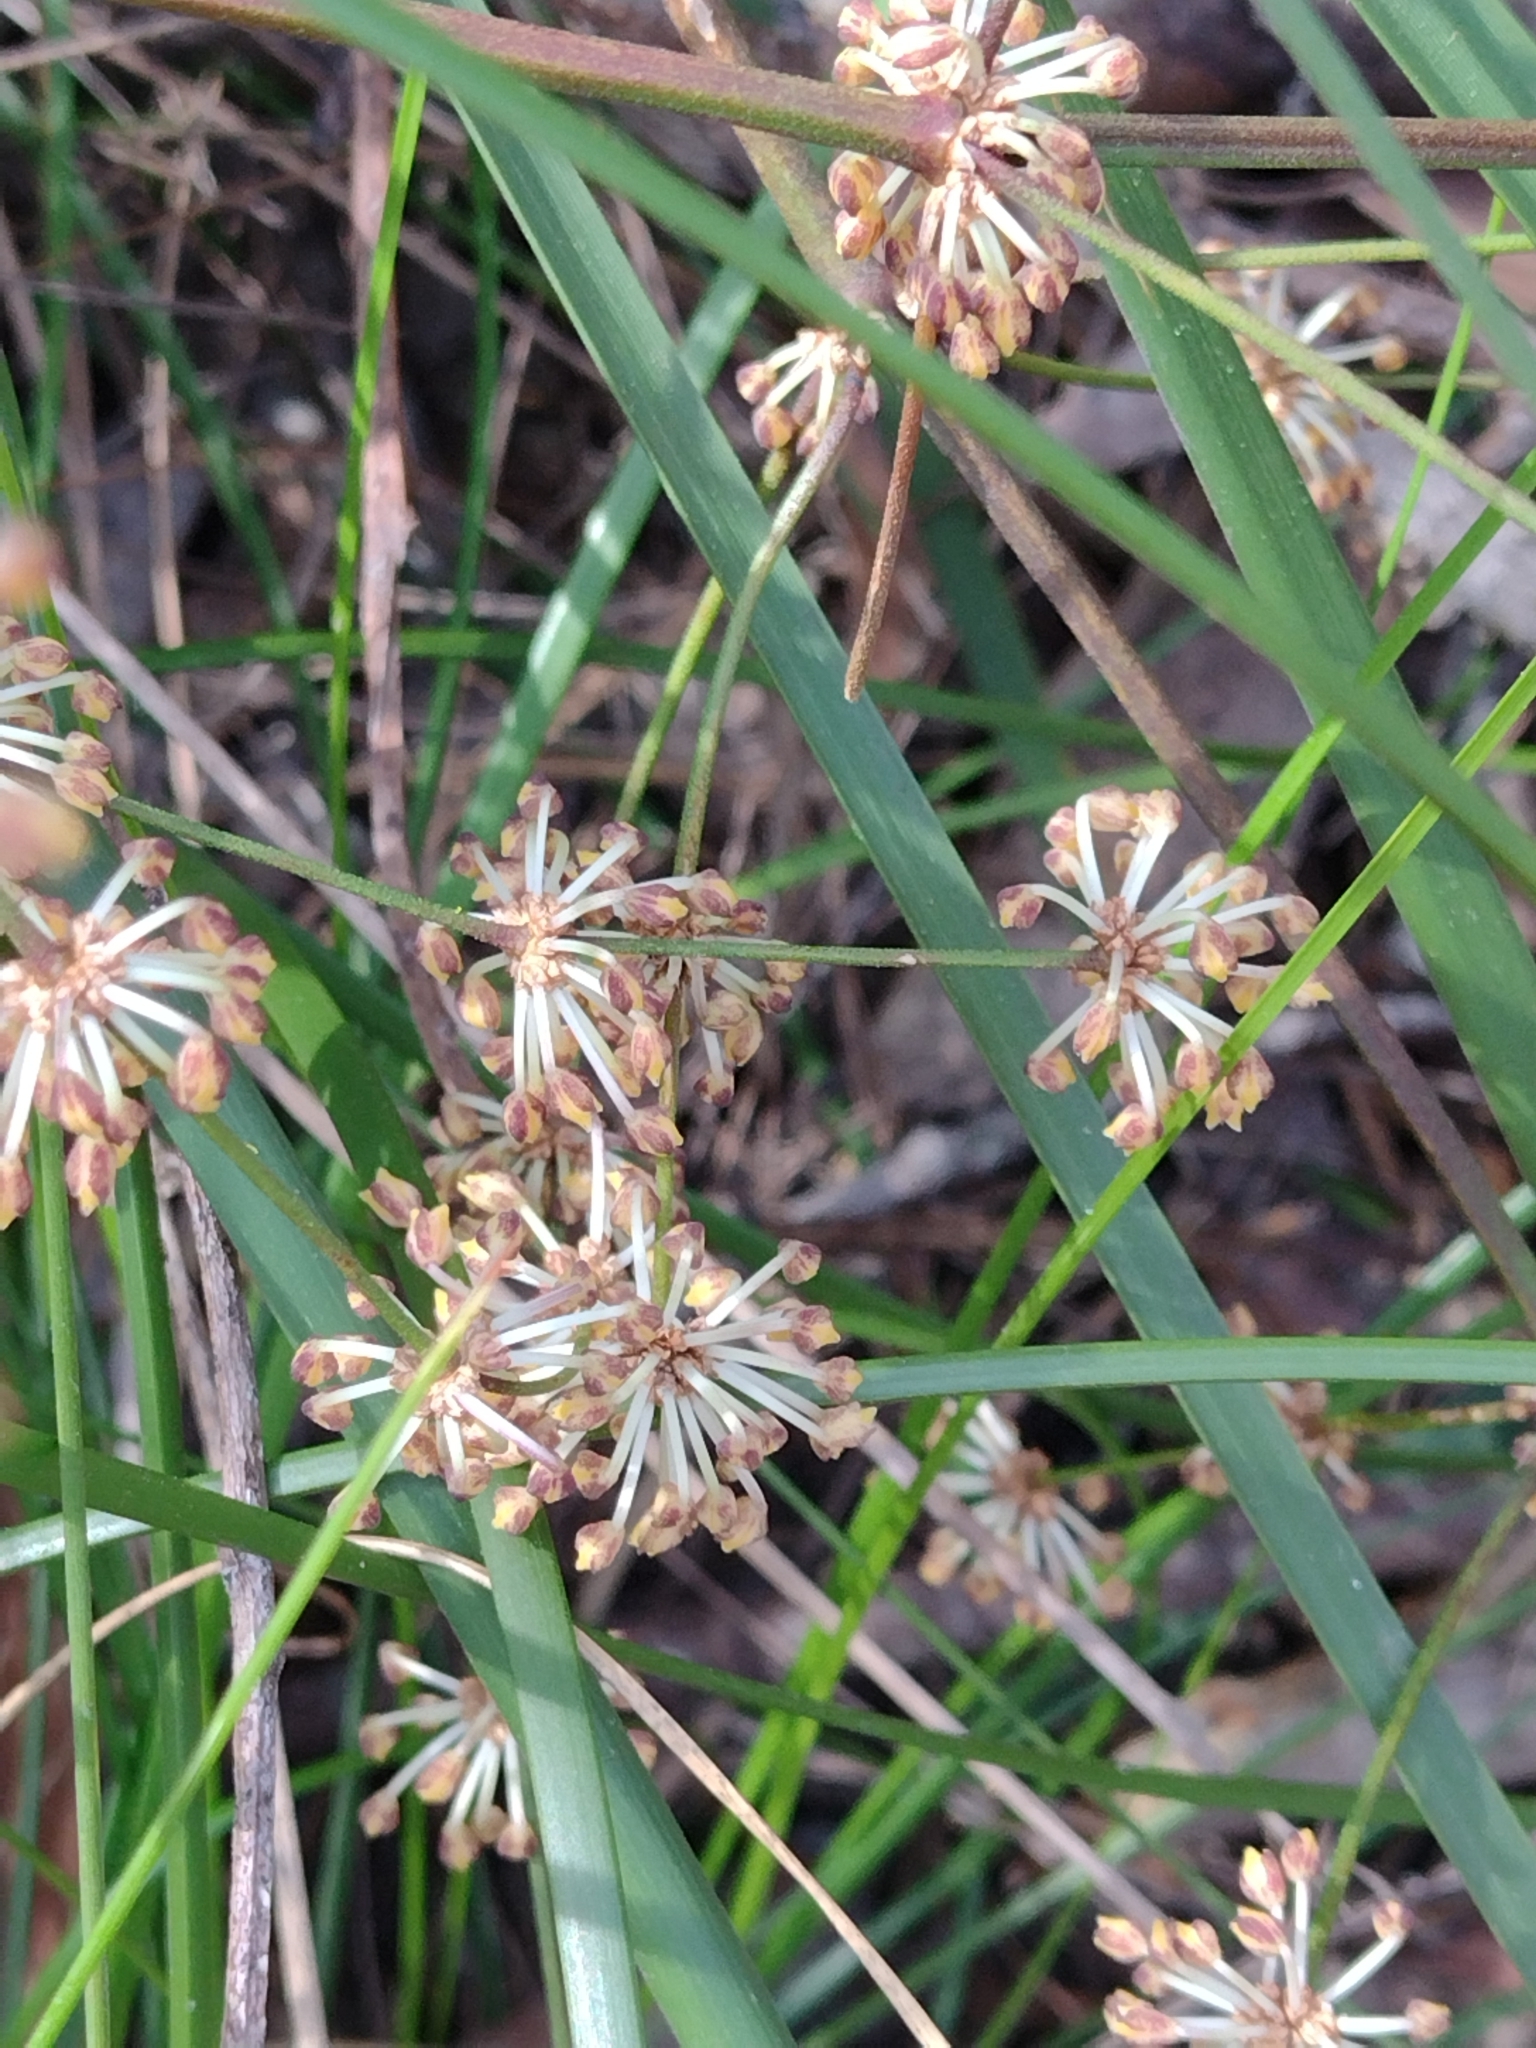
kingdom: Plantae
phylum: Tracheophyta
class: Liliopsida
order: Asparagales
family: Asparagaceae
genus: Lomandra
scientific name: Lomandra multiflora
